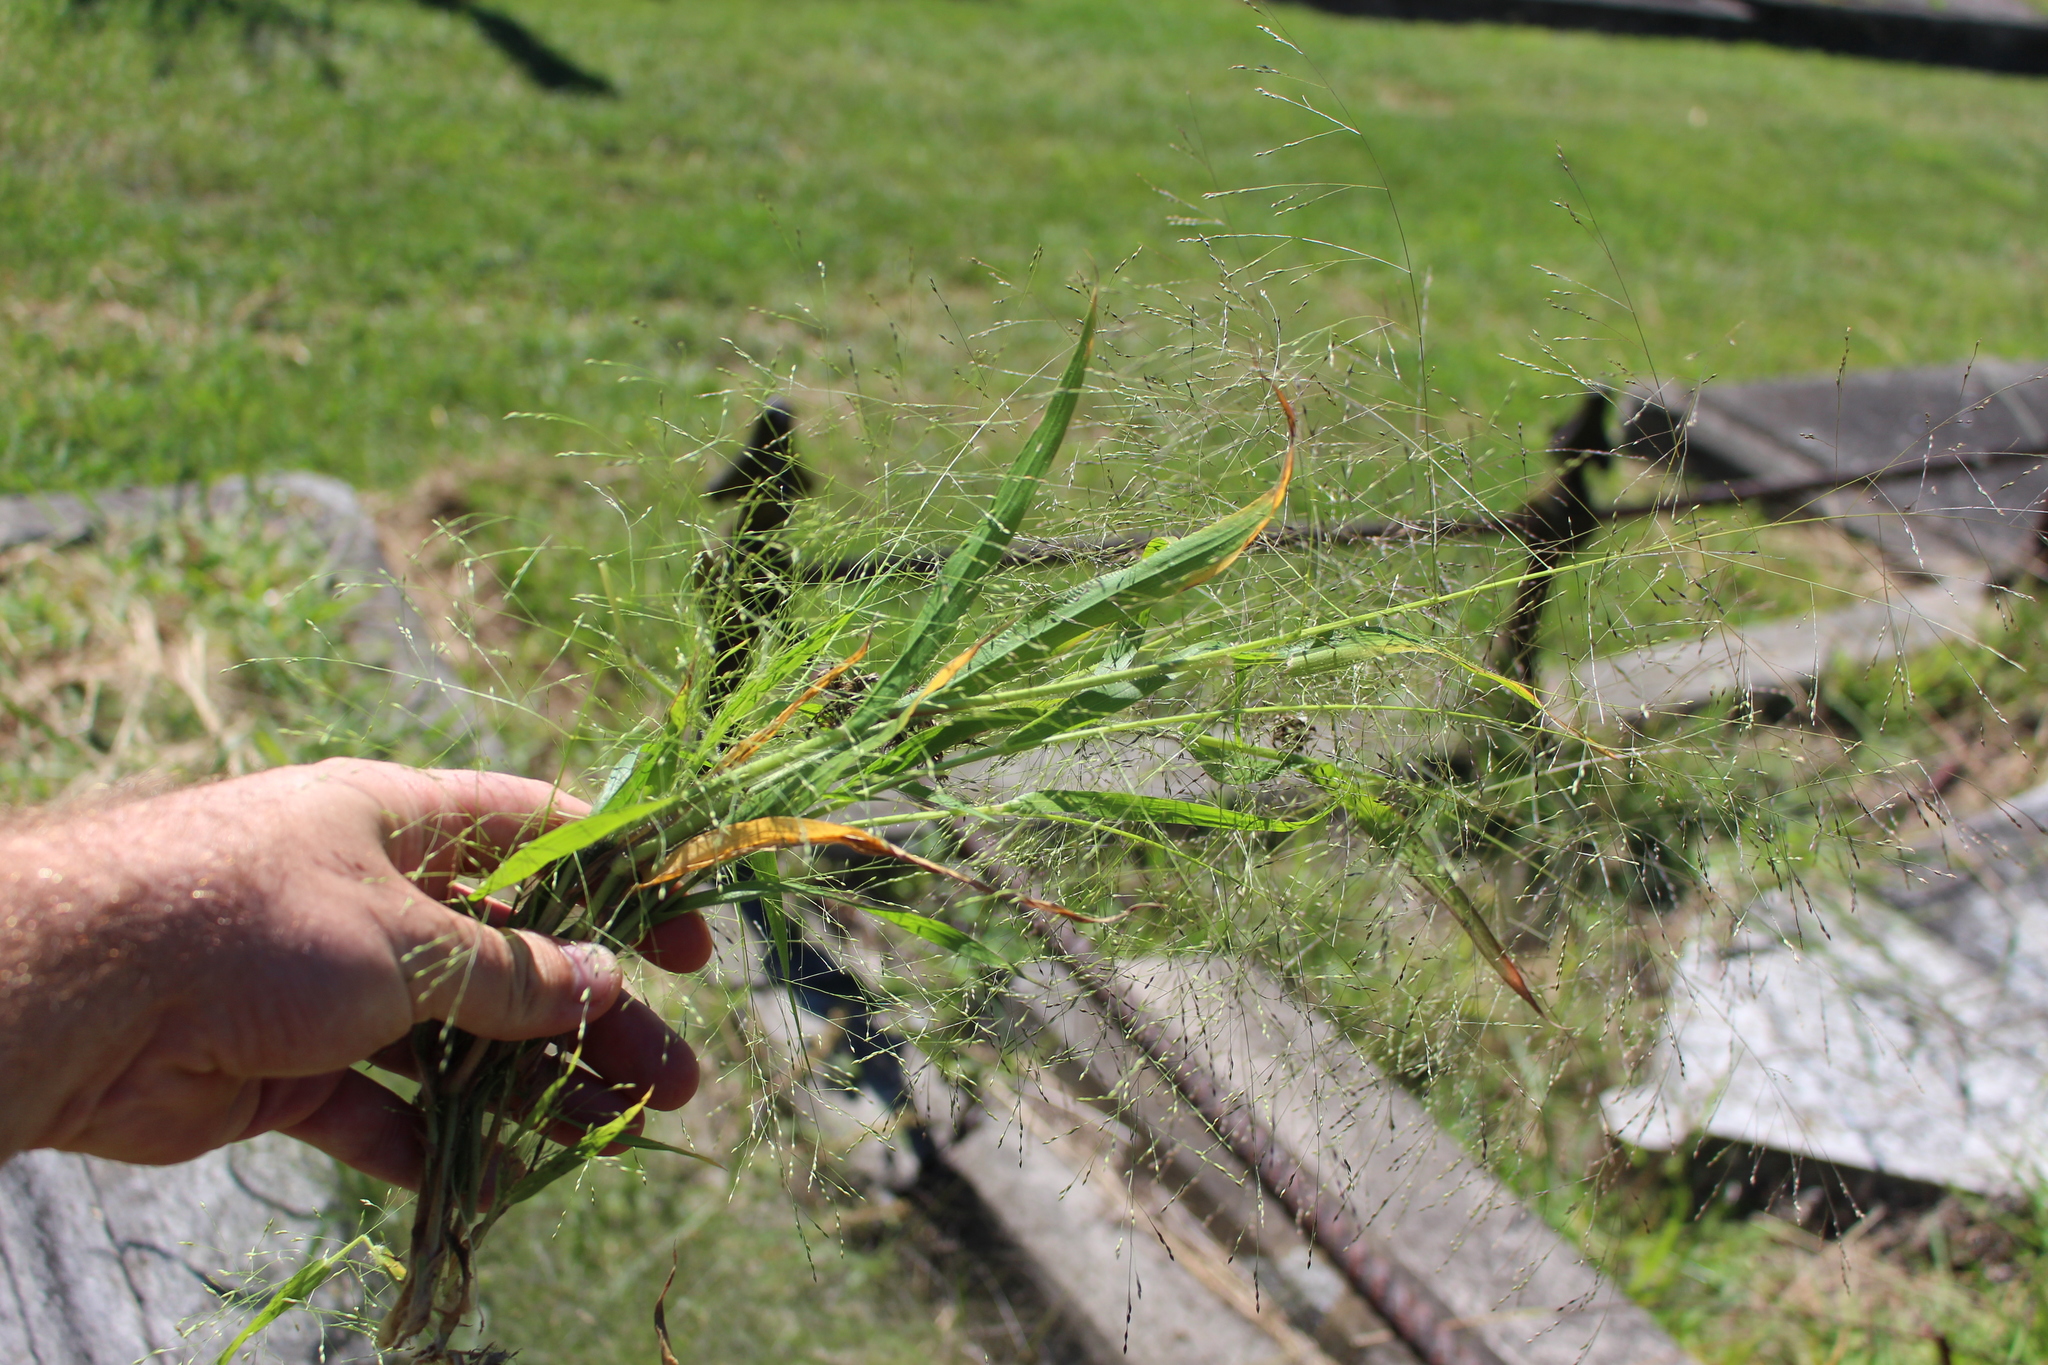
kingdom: Plantae
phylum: Tracheophyta
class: Liliopsida
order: Poales
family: Poaceae
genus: Panicum
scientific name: Panicum capillare
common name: Witch-grass
